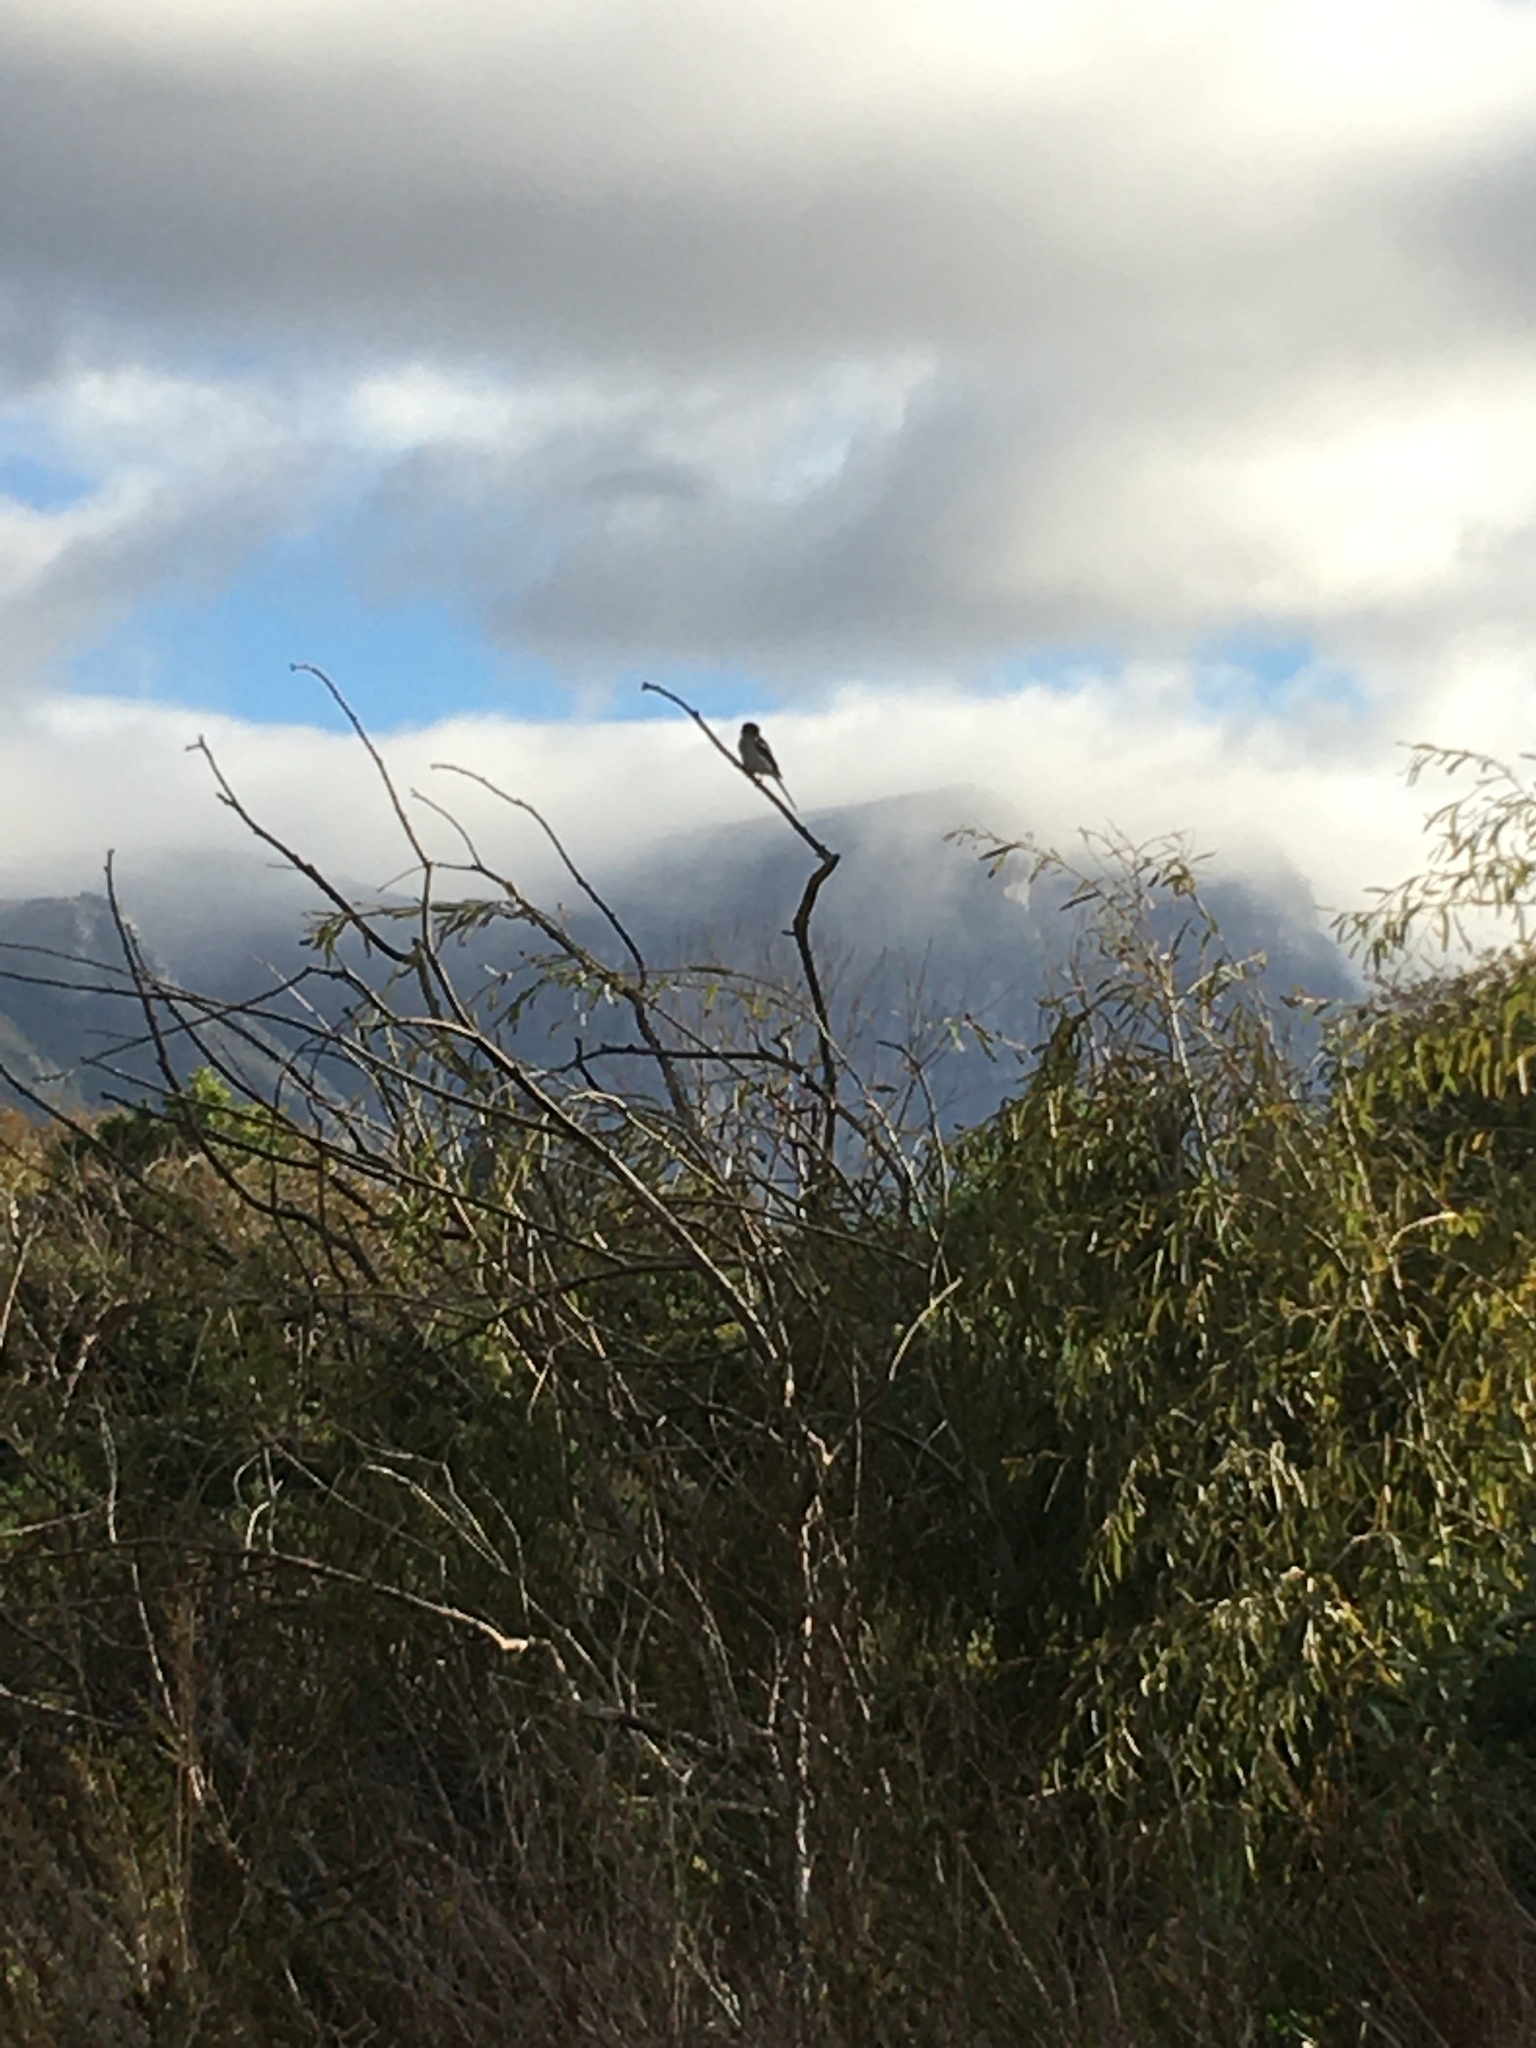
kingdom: Animalia
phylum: Chordata
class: Aves
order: Passeriformes
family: Laniidae
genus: Lanius
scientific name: Lanius collaris
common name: Southern fiscal
